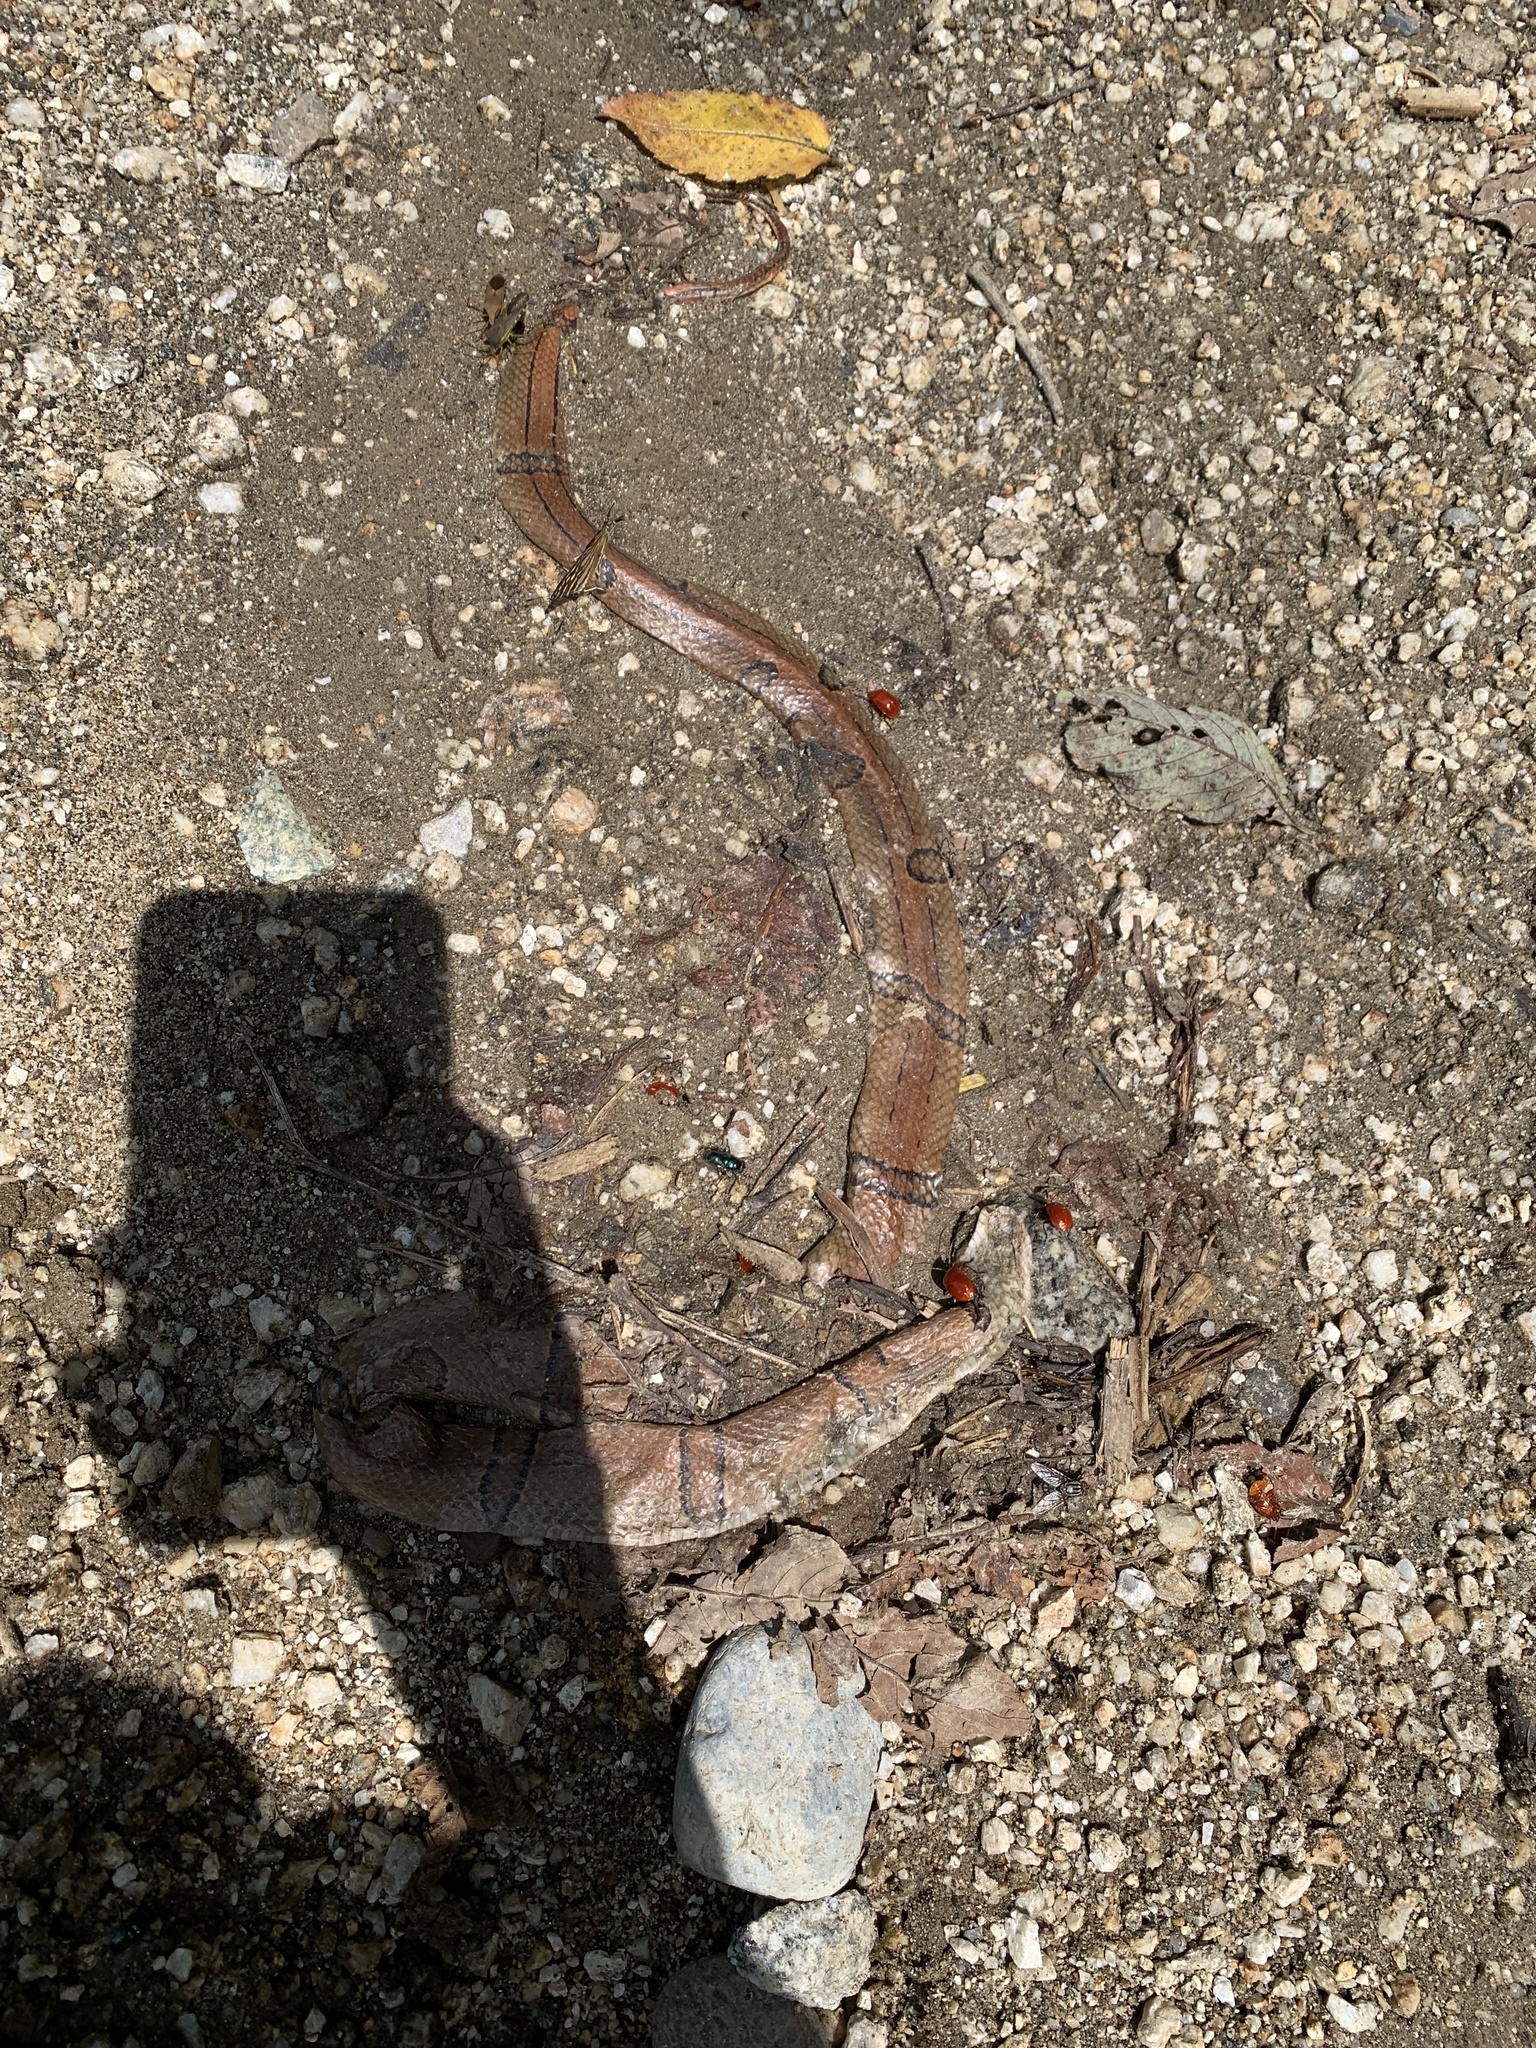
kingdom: Animalia
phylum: Chordata
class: Squamata
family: Colubridae
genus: Oreocryptophis
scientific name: Oreocryptophis porphyraceus
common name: Black-banded trinket snake
